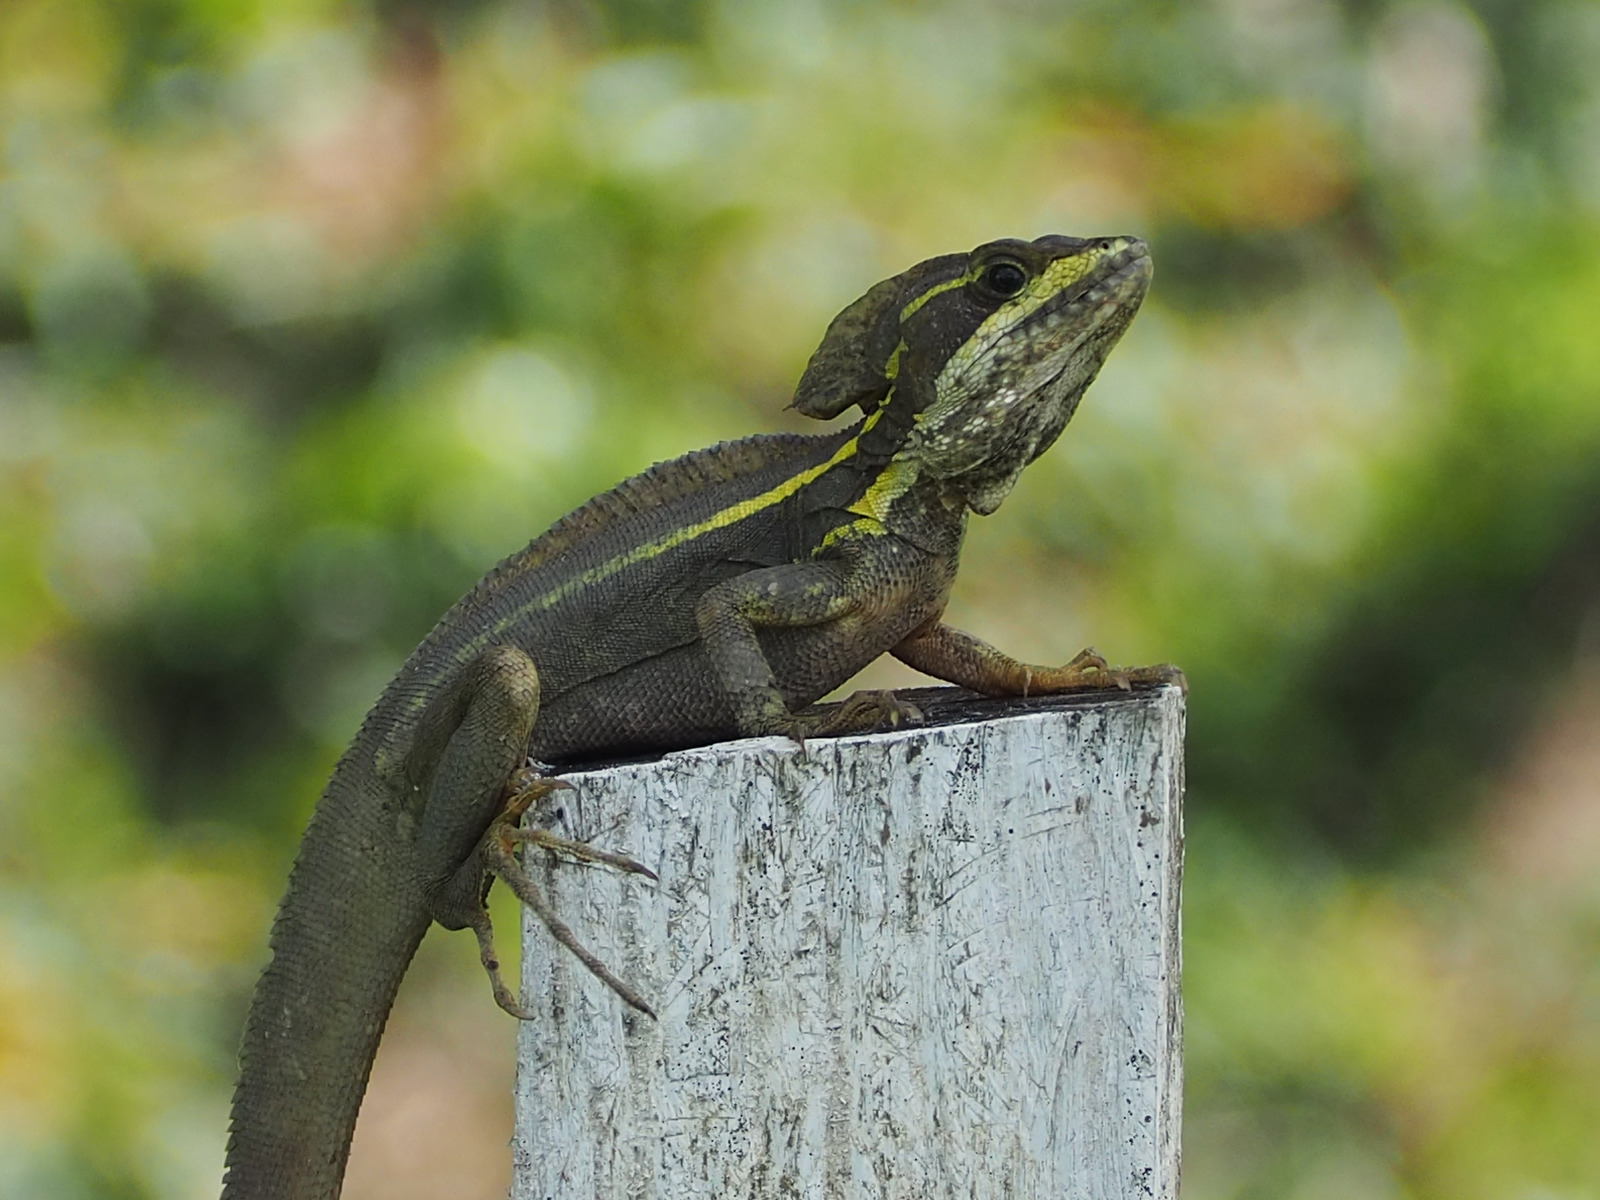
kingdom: Animalia
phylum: Chordata
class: Squamata
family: Corytophanidae
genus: Basiliscus
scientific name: Basiliscus vittatus
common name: Brown basilisk
